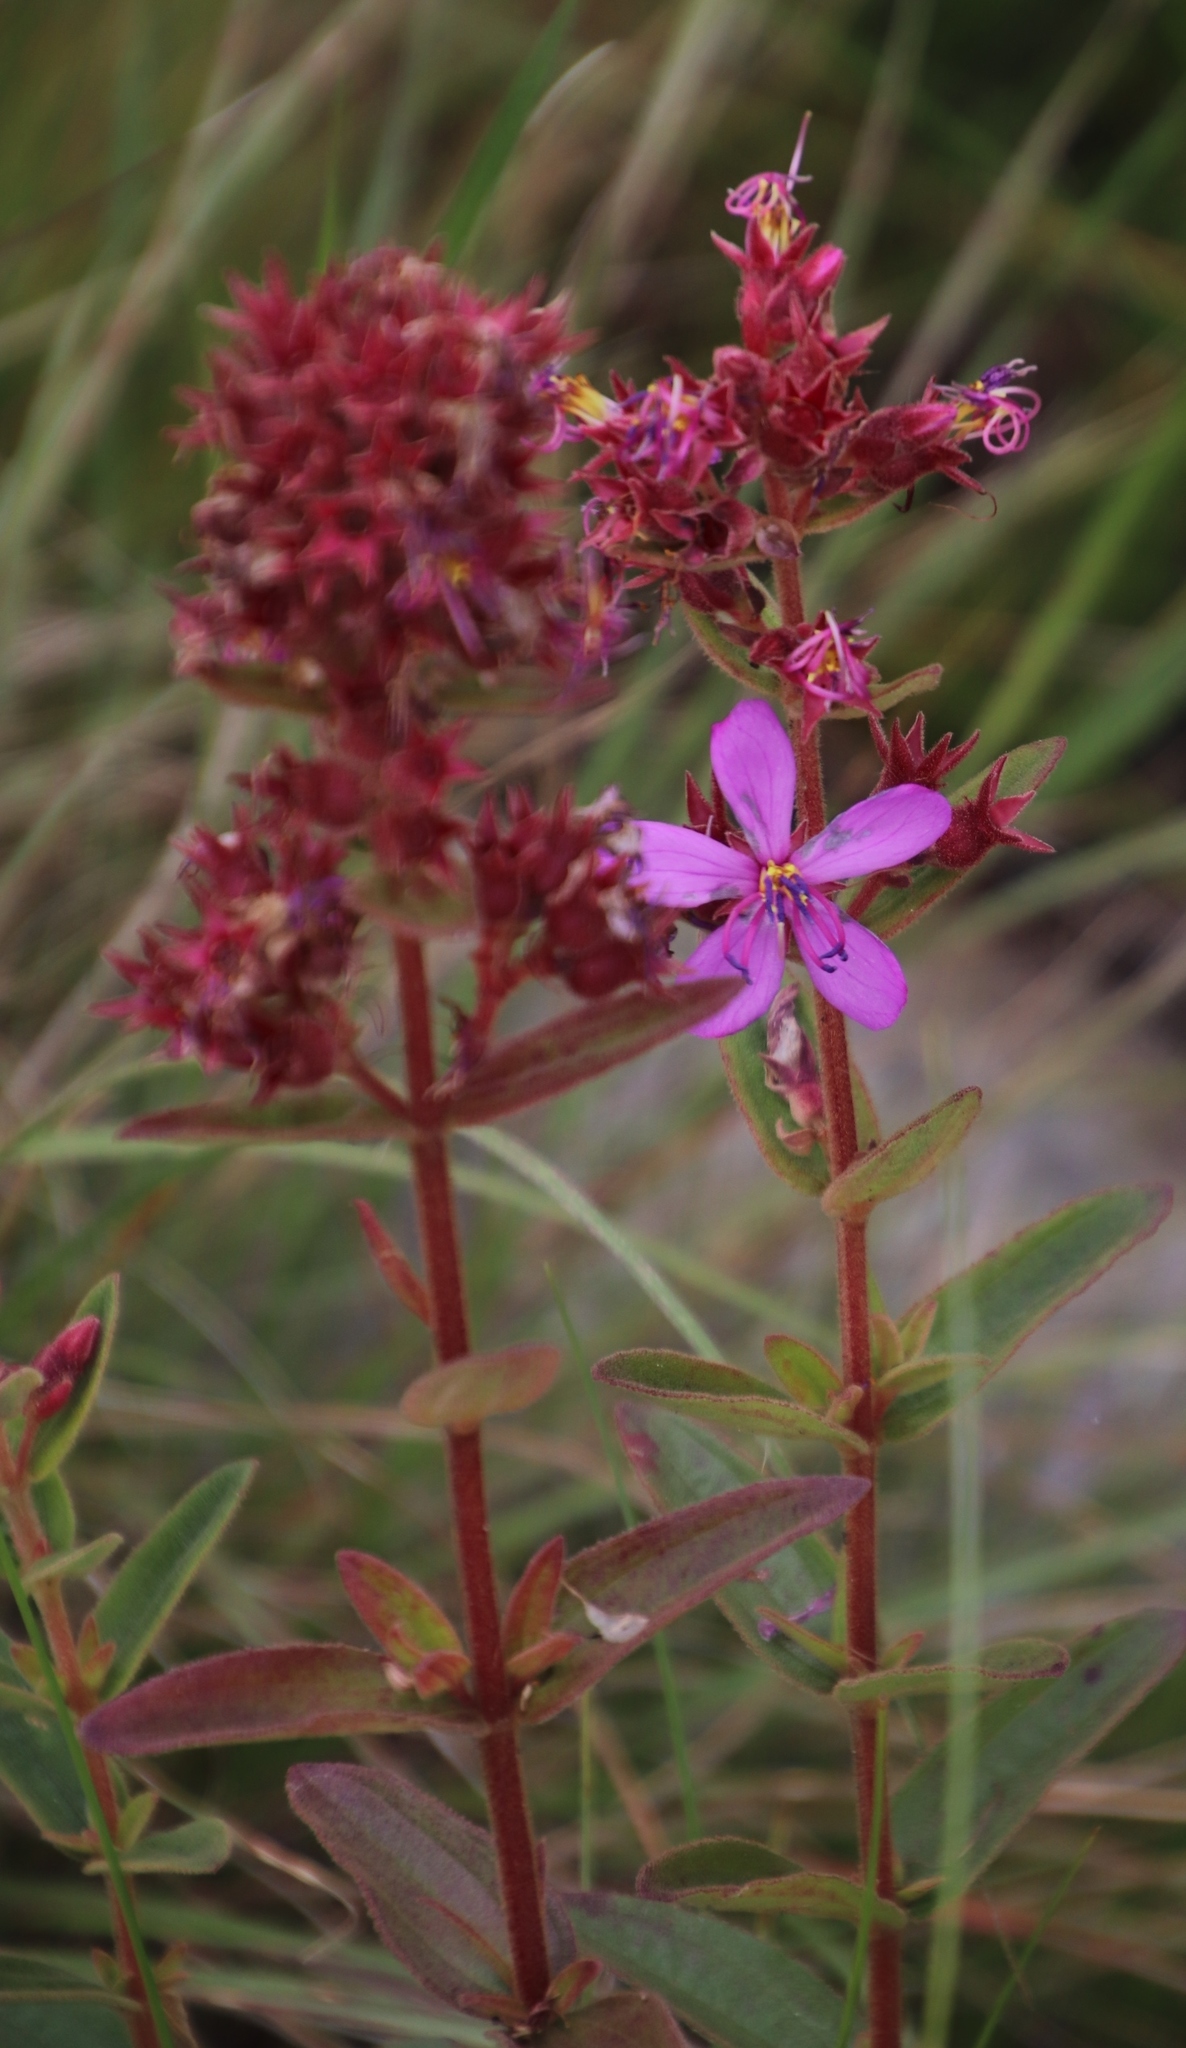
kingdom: Plantae
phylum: Tracheophyta
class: Magnoliopsida
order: Myrtales
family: Melastomataceae
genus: Argyrella
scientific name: Argyrella canescens
